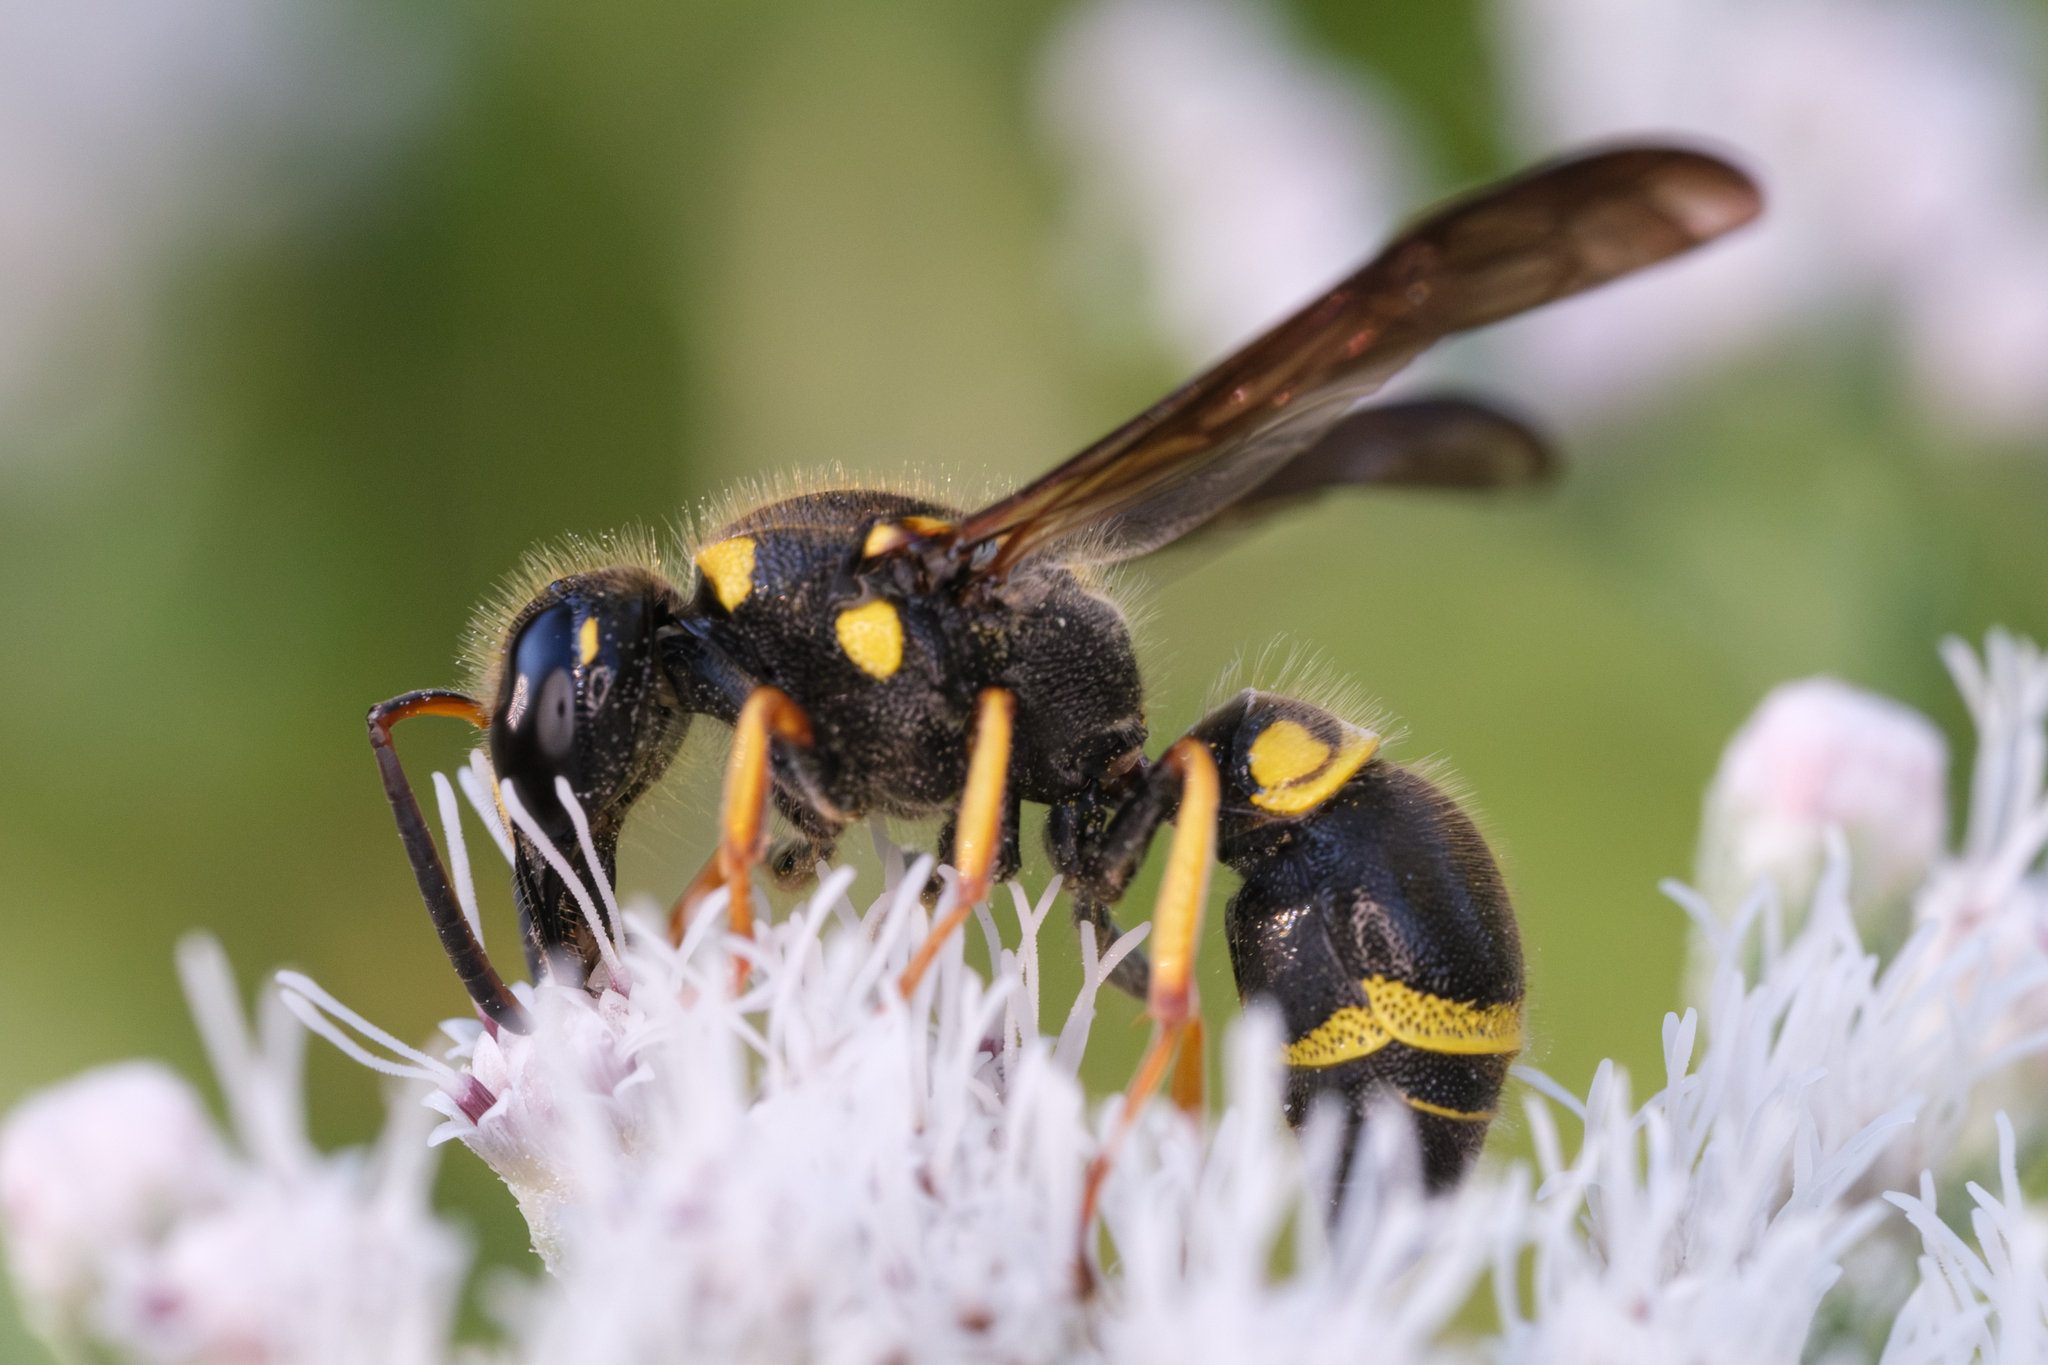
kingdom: Animalia
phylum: Arthropoda
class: Insecta
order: Hymenoptera
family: Vespidae
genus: Ancistrocerus
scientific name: Ancistrocerus campestris
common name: Smiling mason wasp
